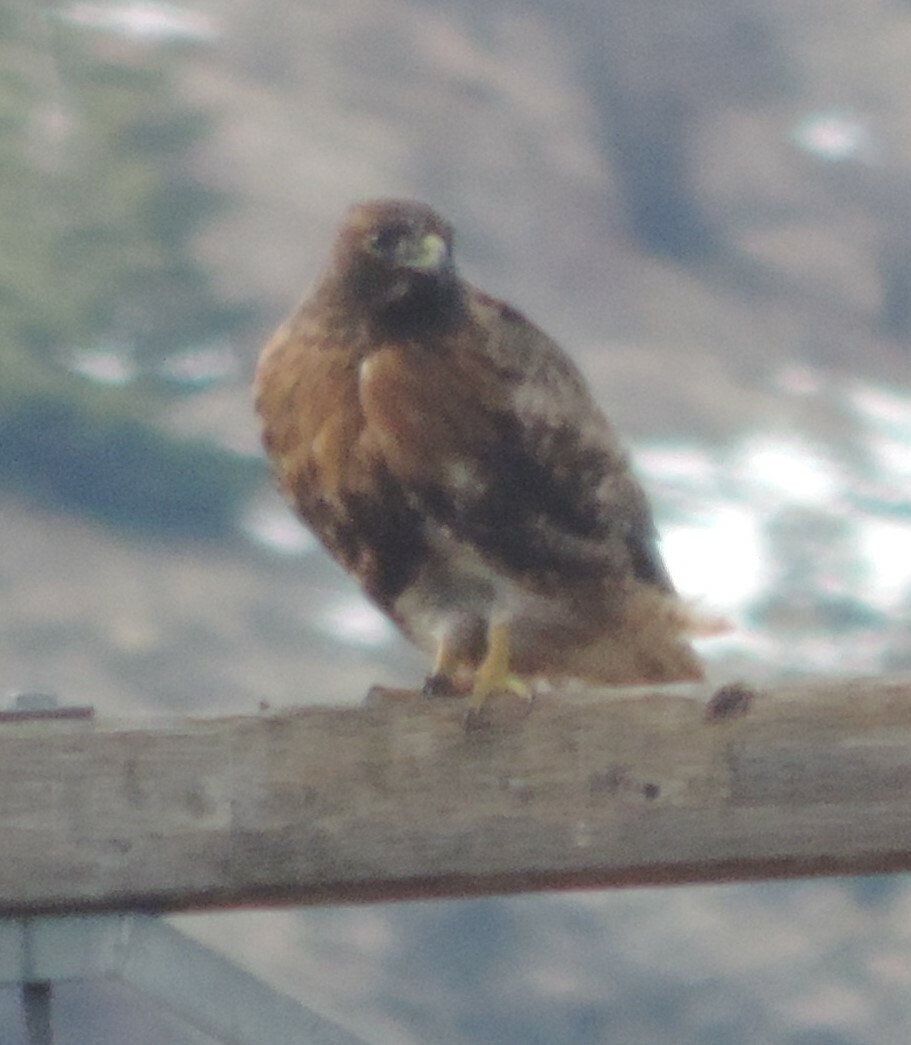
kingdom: Animalia
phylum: Chordata
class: Aves
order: Accipitriformes
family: Accipitridae
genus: Buteo
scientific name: Buteo jamaicensis
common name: Red-tailed hawk
